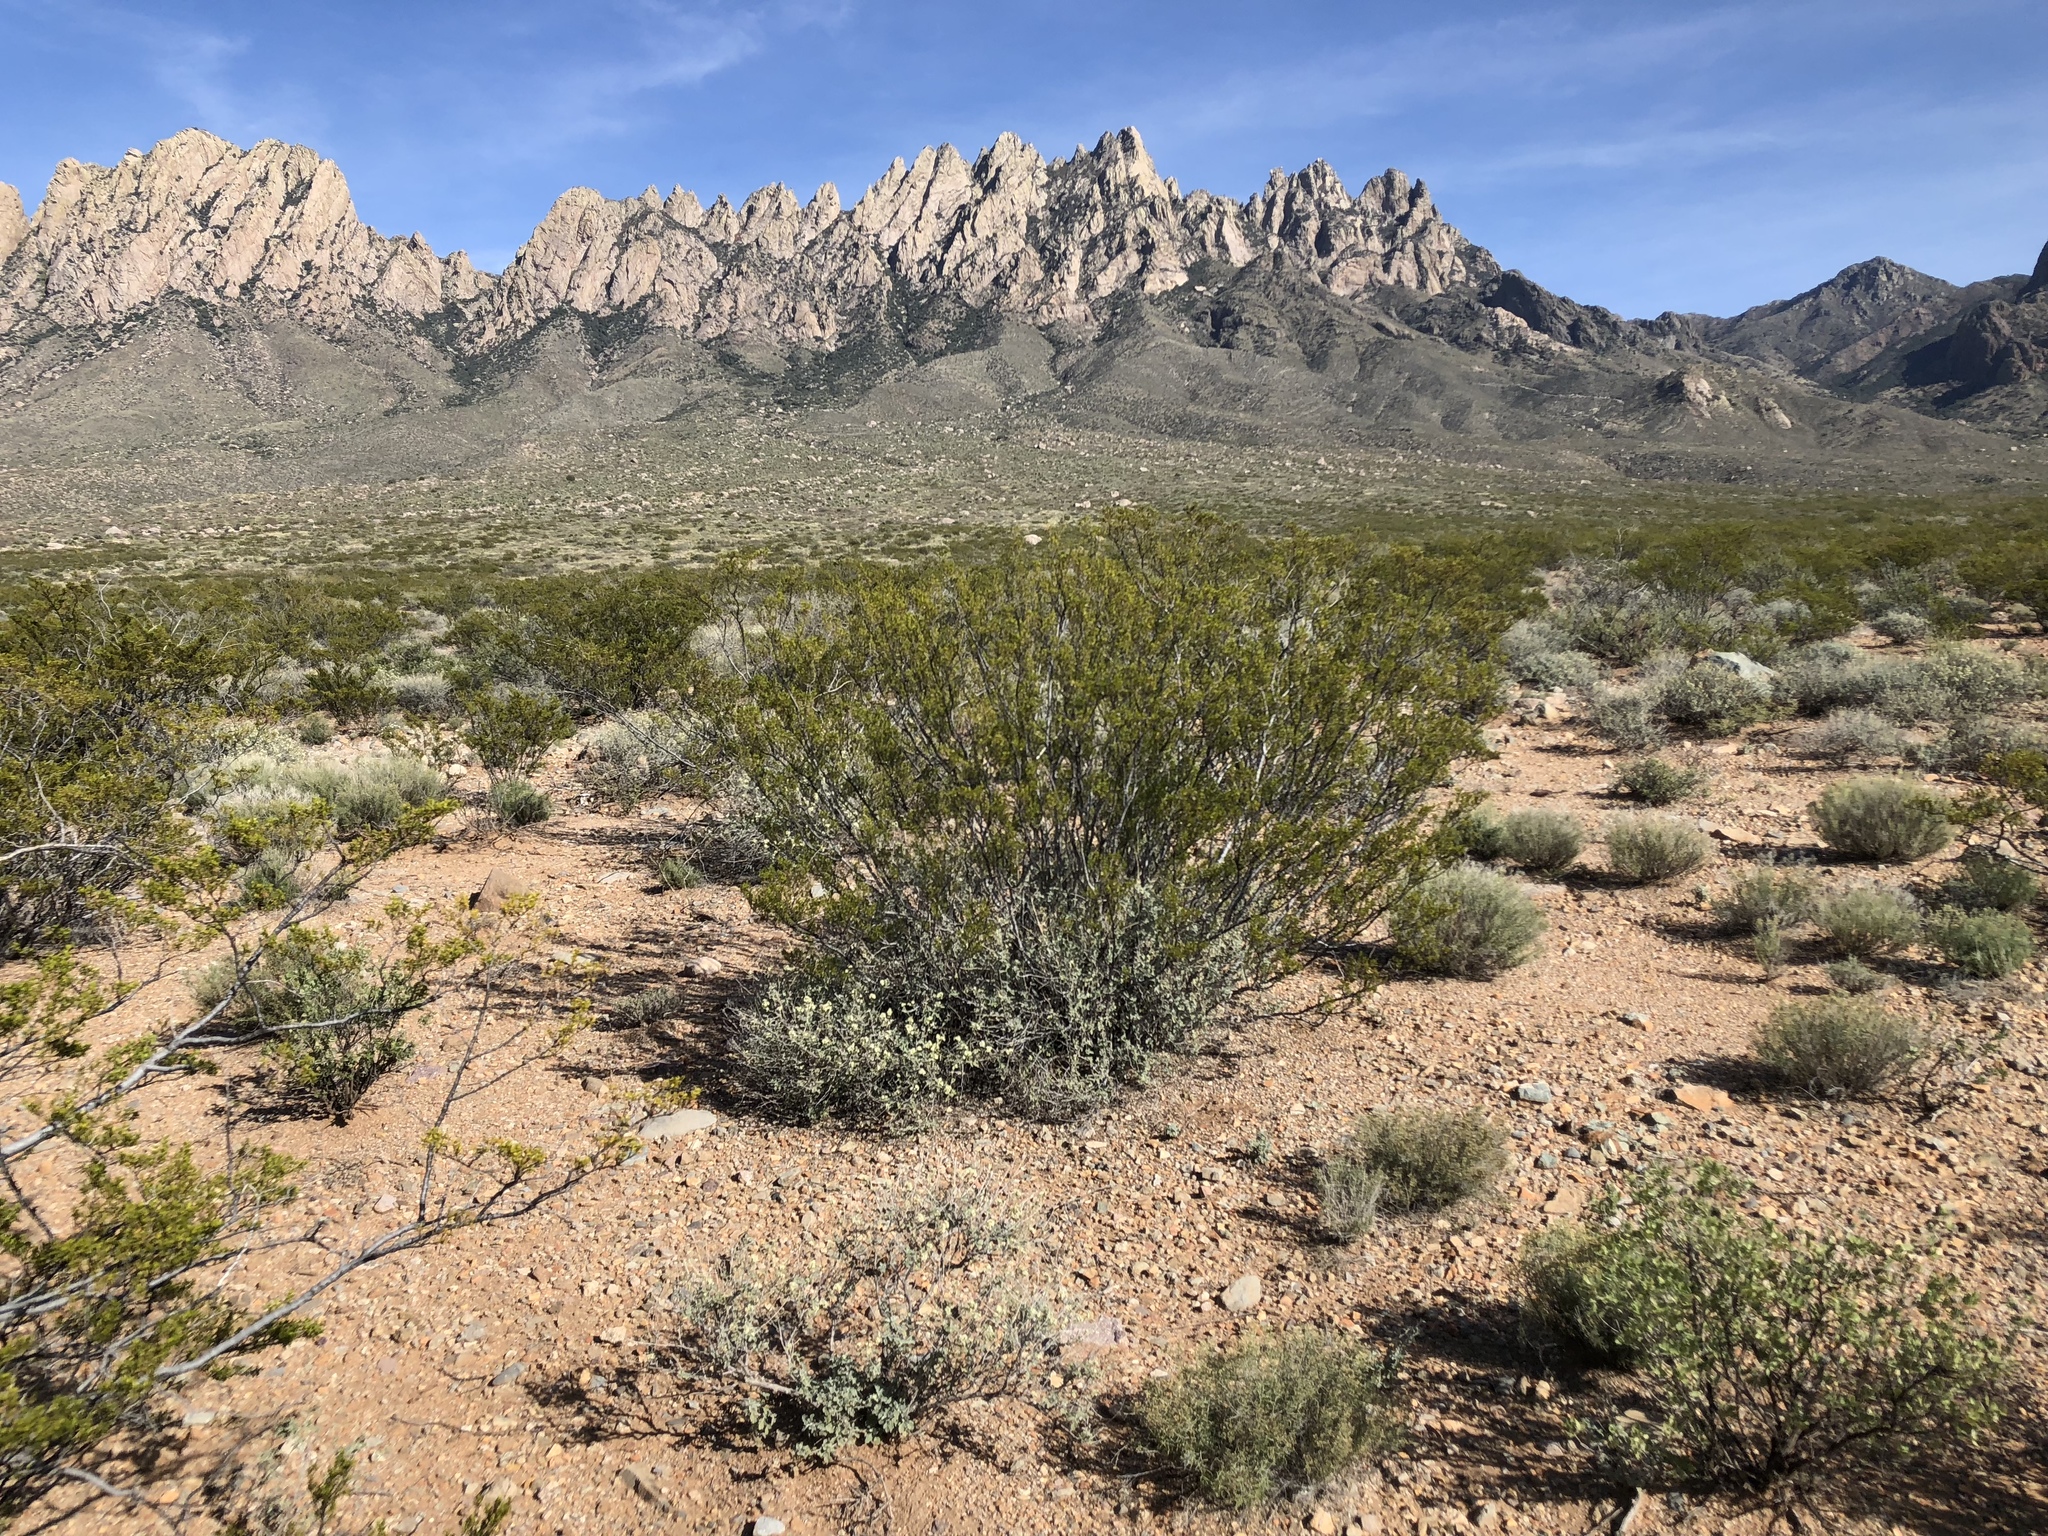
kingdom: Plantae
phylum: Tracheophyta
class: Magnoliopsida
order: Zygophyllales
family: Zygophyllaceae
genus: Larrea
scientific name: Larrea tridentata
